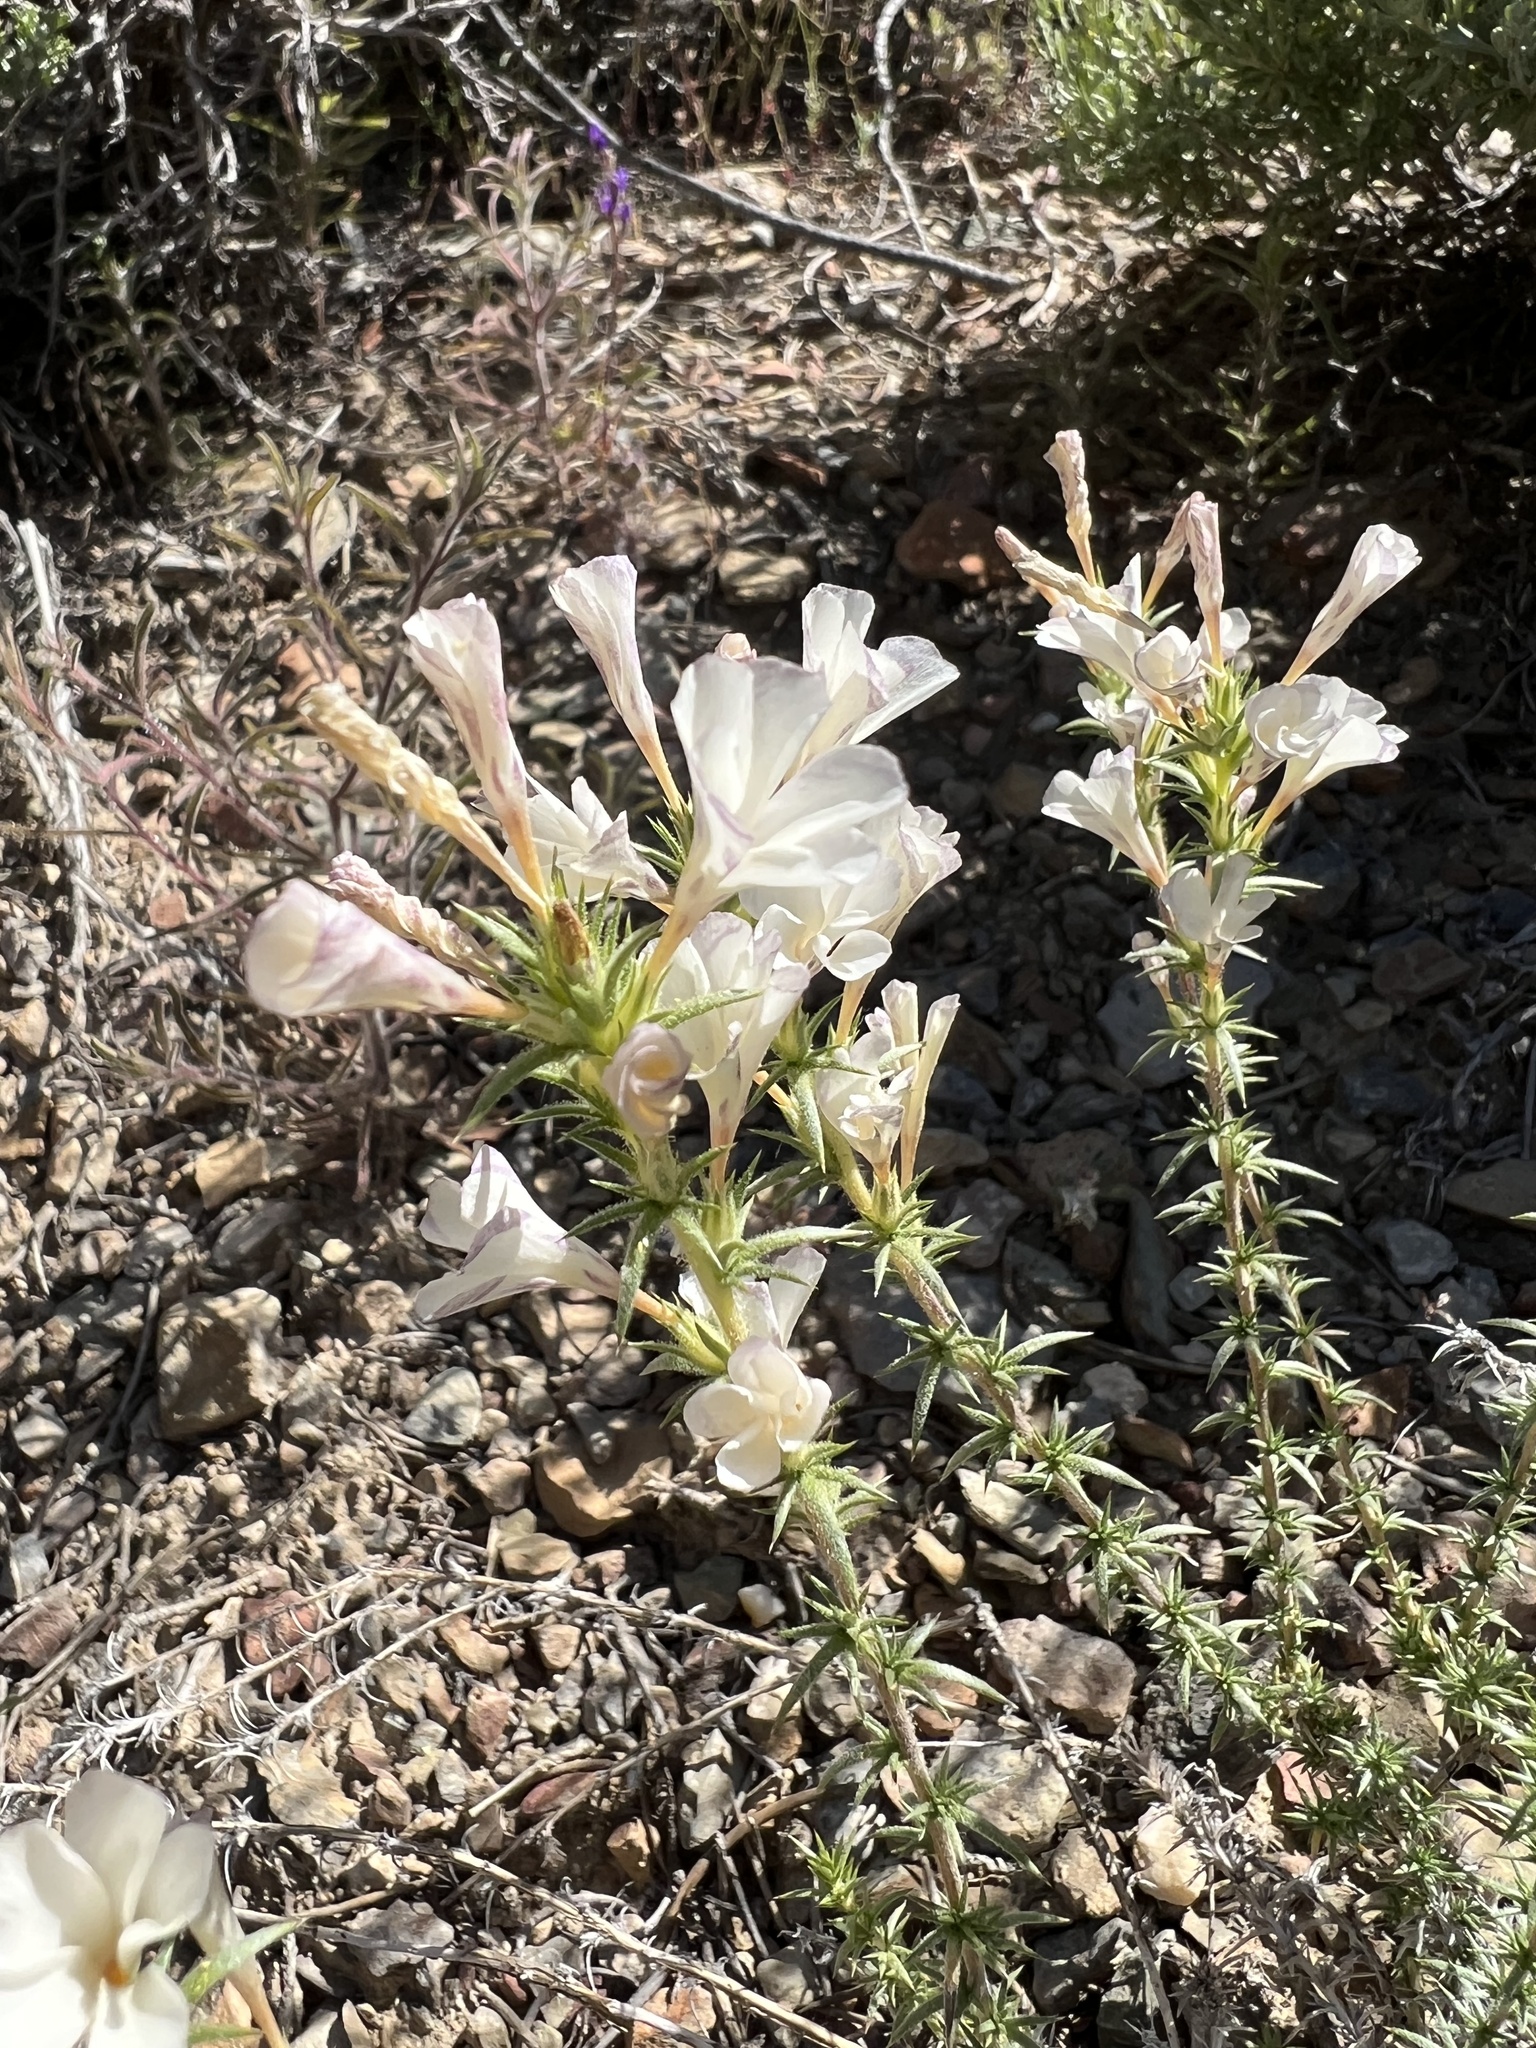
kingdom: Plantae
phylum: Tracheophyta
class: Magnoliopsida
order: Ericales
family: Polemoniaceae
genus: Linanthus
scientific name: Linanthus pungens
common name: Granite prickly phlox
